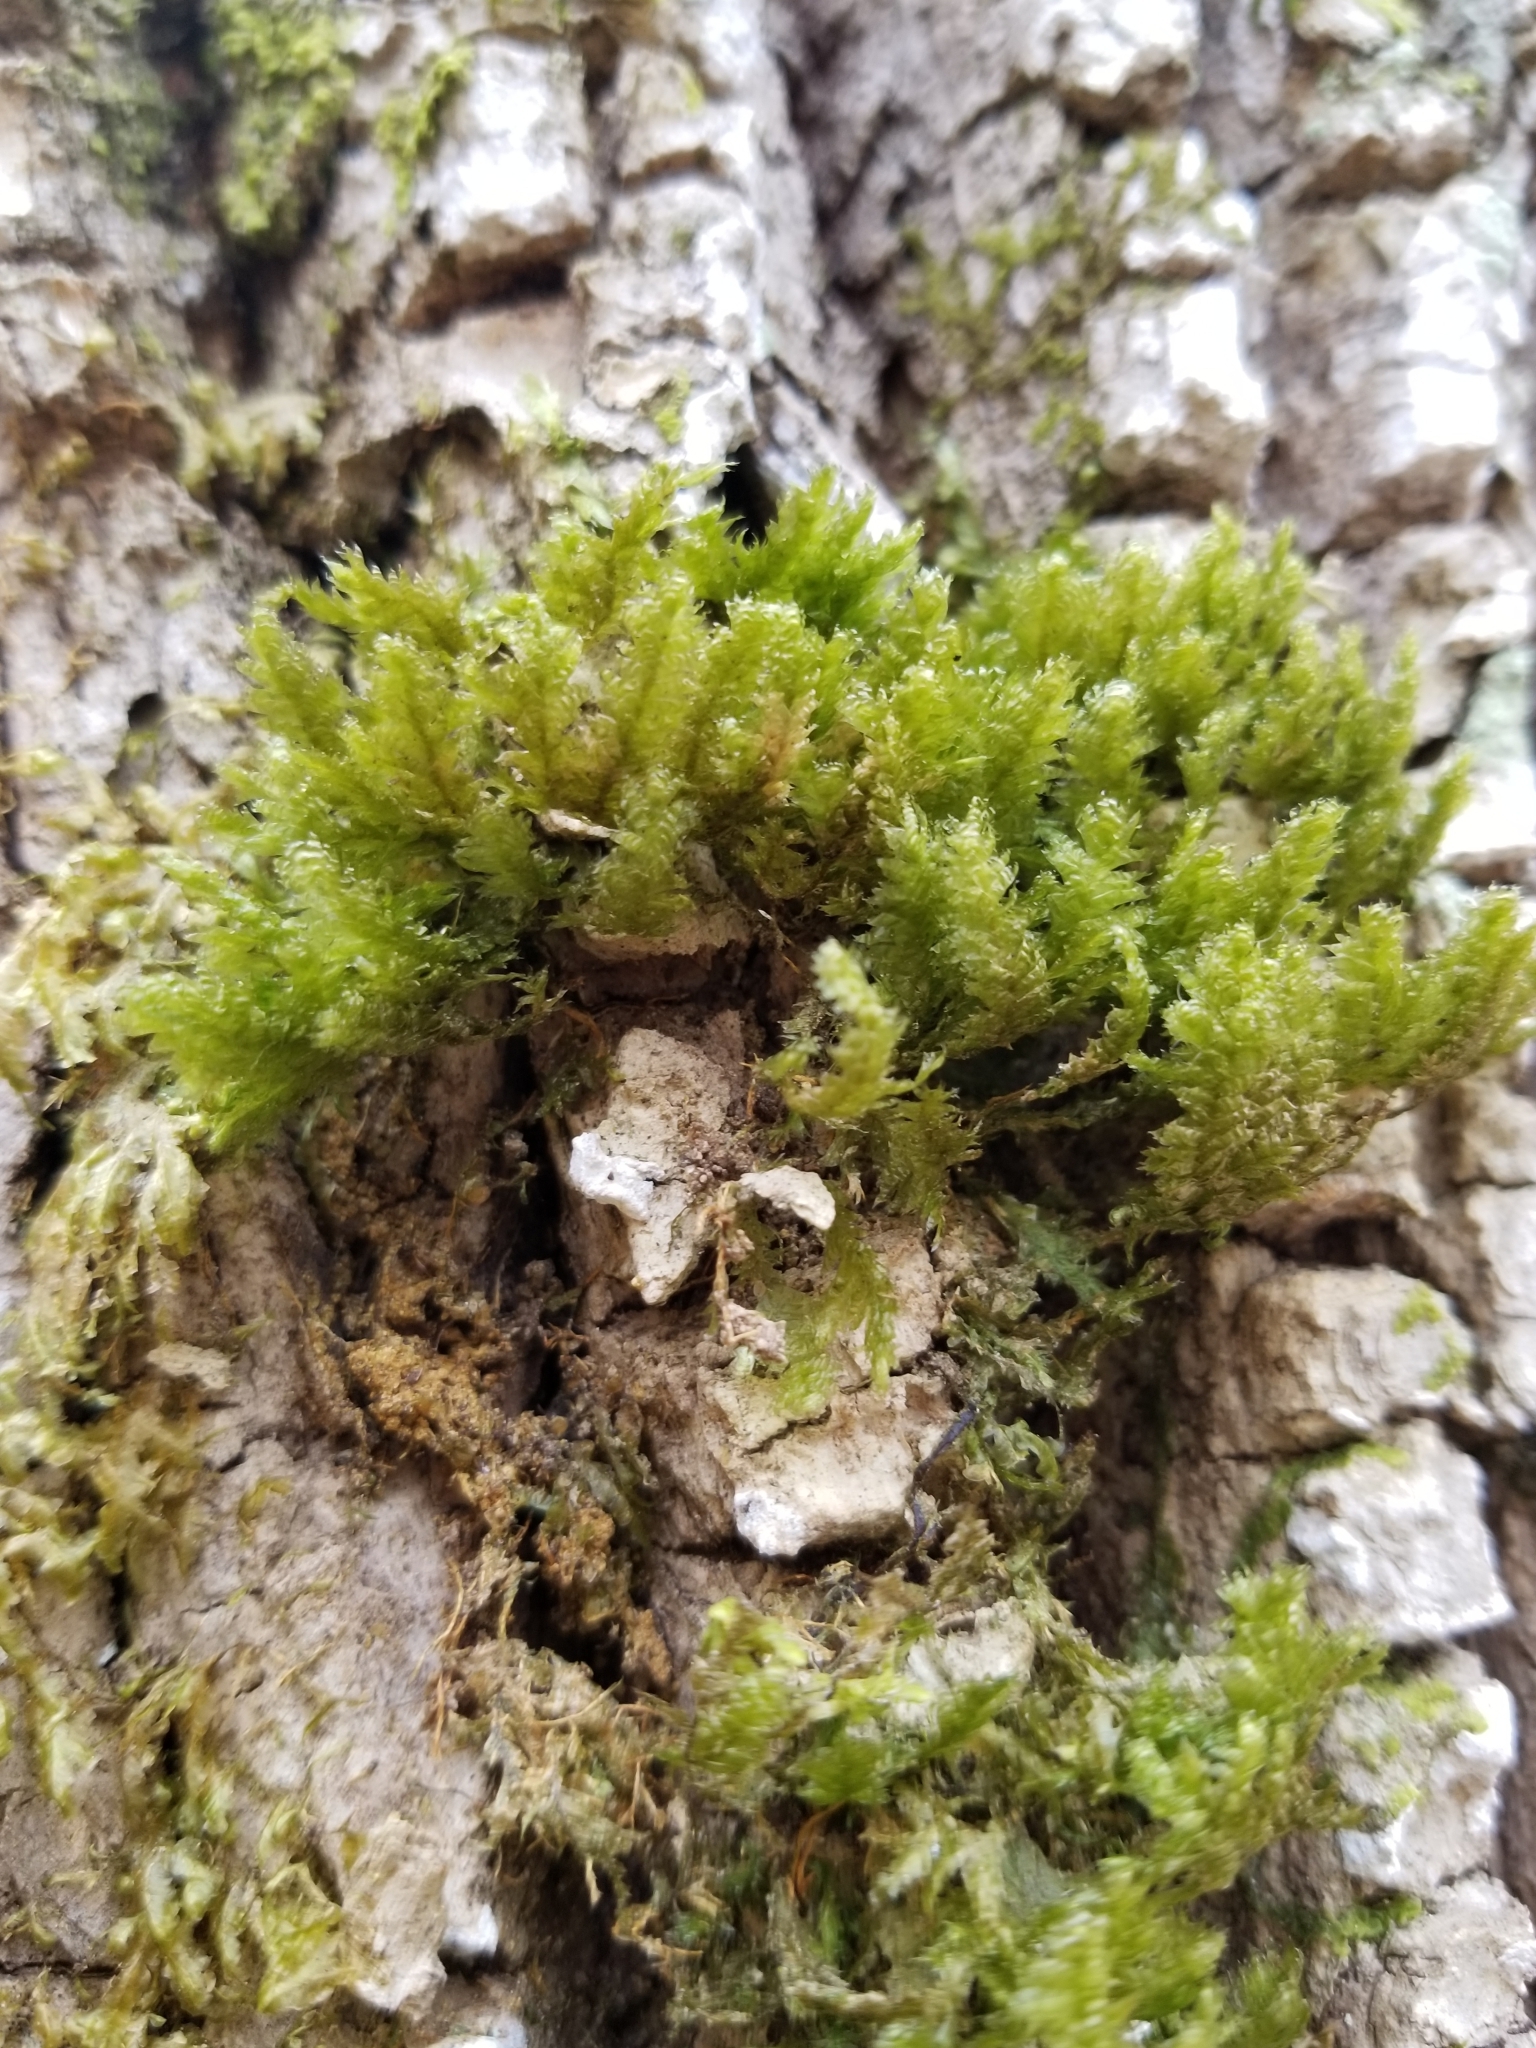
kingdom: Plantae
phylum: Bryophyta
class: Bryopsida
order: Hypnales
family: Neckeraceae
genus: Neckera
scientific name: Neckera pennata
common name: Feathery neckera
